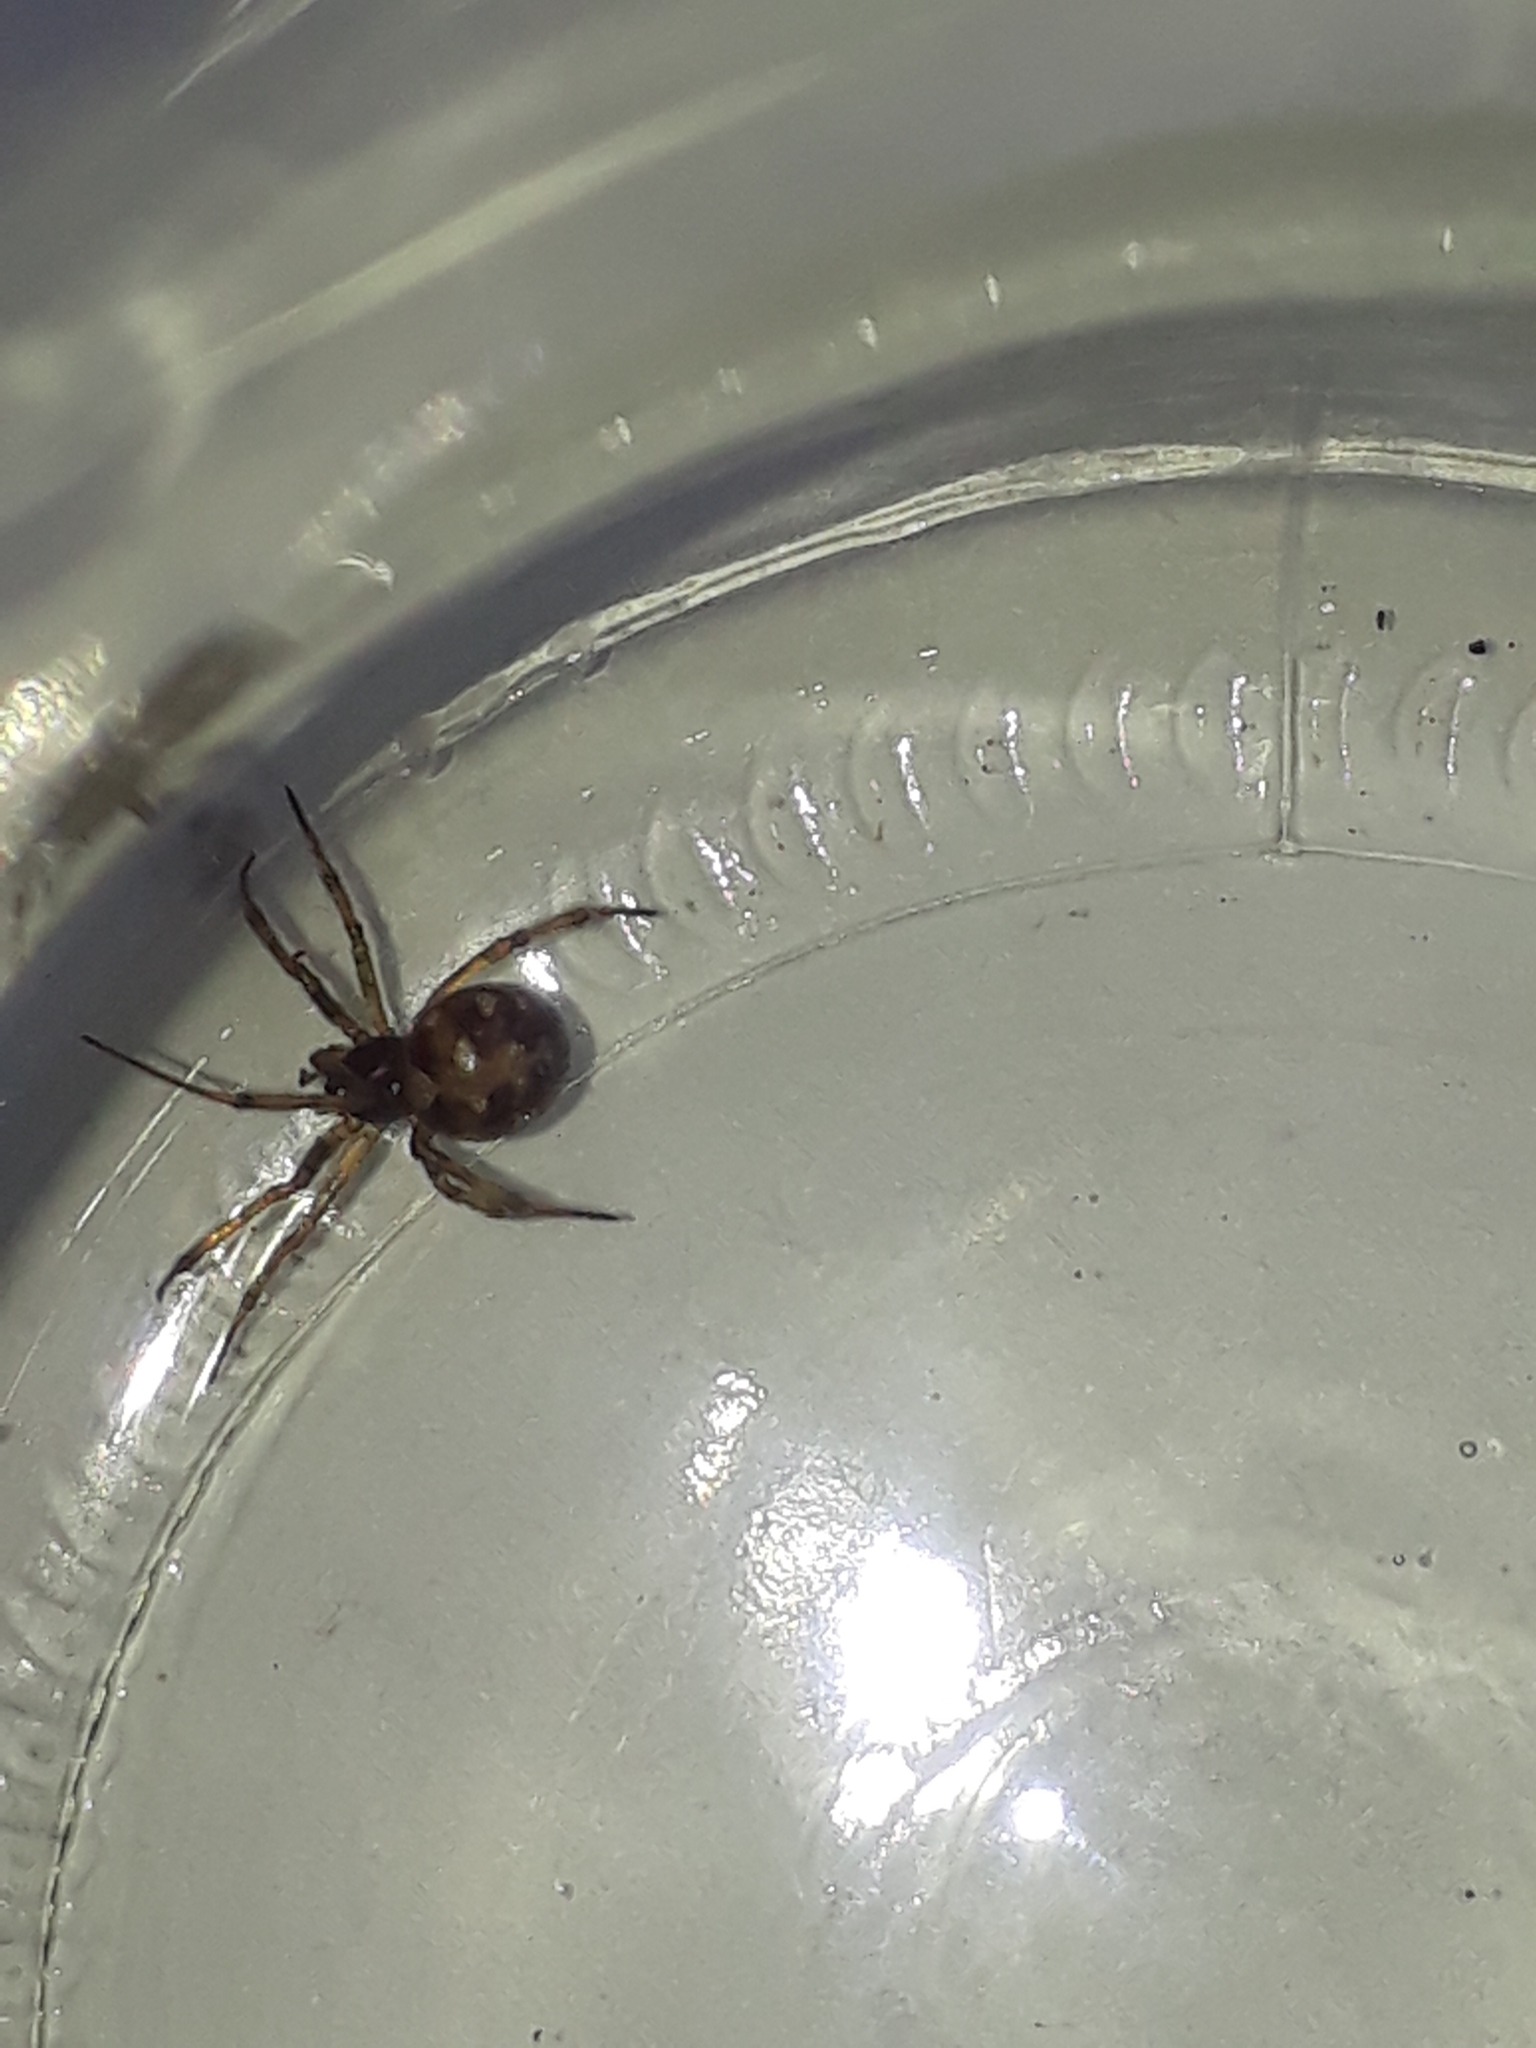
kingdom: Animalia
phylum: Arthropoda
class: Arachnida
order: Araneae
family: Theridiidae
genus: Steatoda
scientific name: Steatoda triangulosa
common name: Triangulate bud spider
